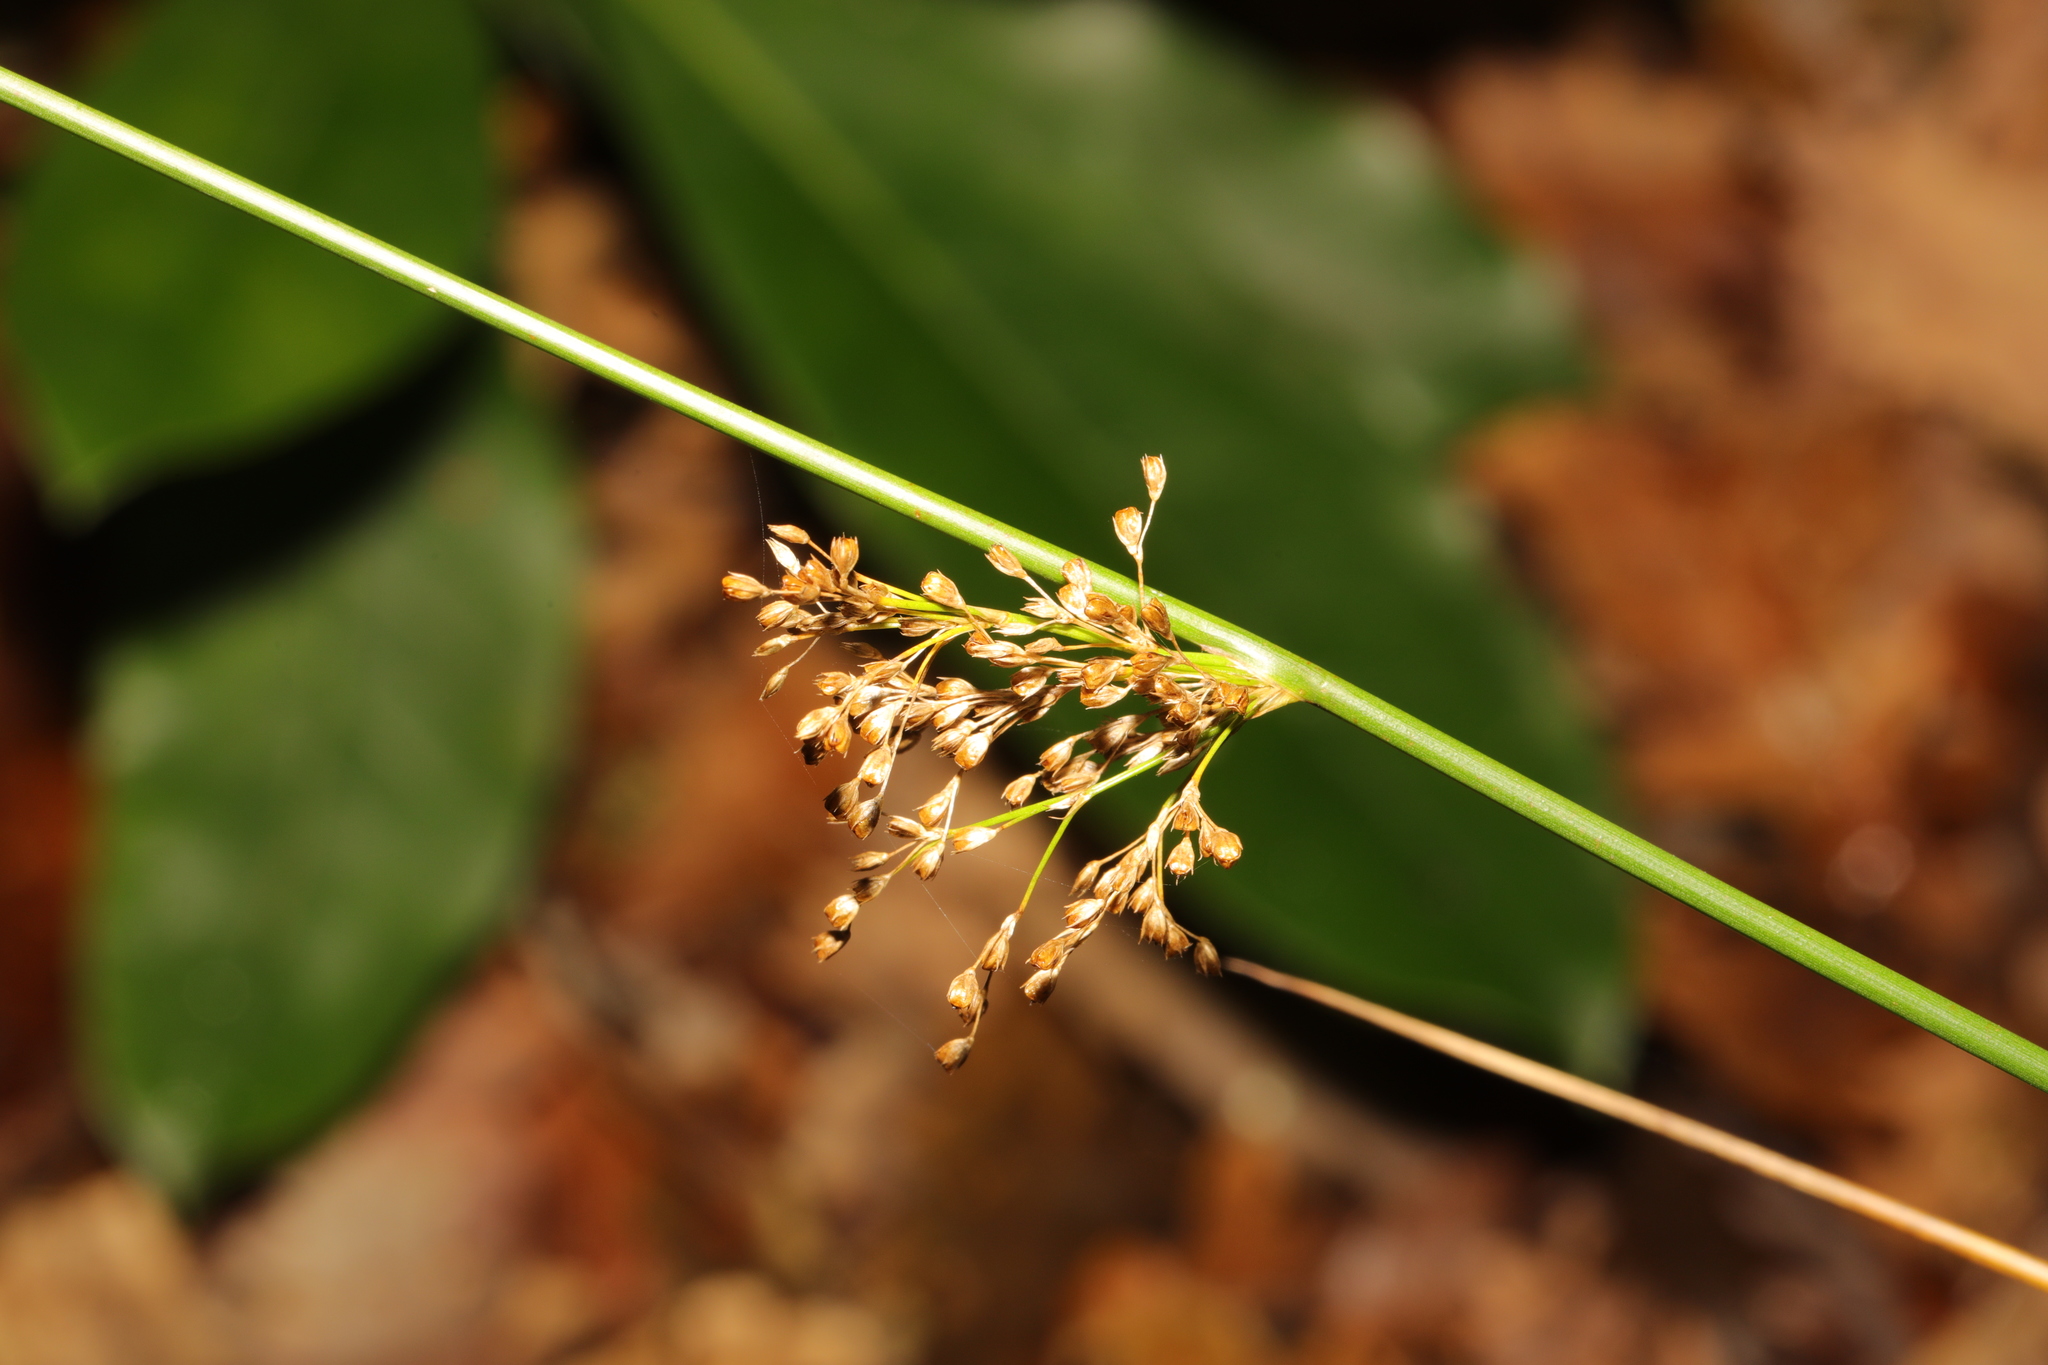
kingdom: Plantae
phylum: Tracheophyta
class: Liliopsida
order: Poales
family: Juncaceae
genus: Juncus
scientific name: Juncus effusus
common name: Soft rush
